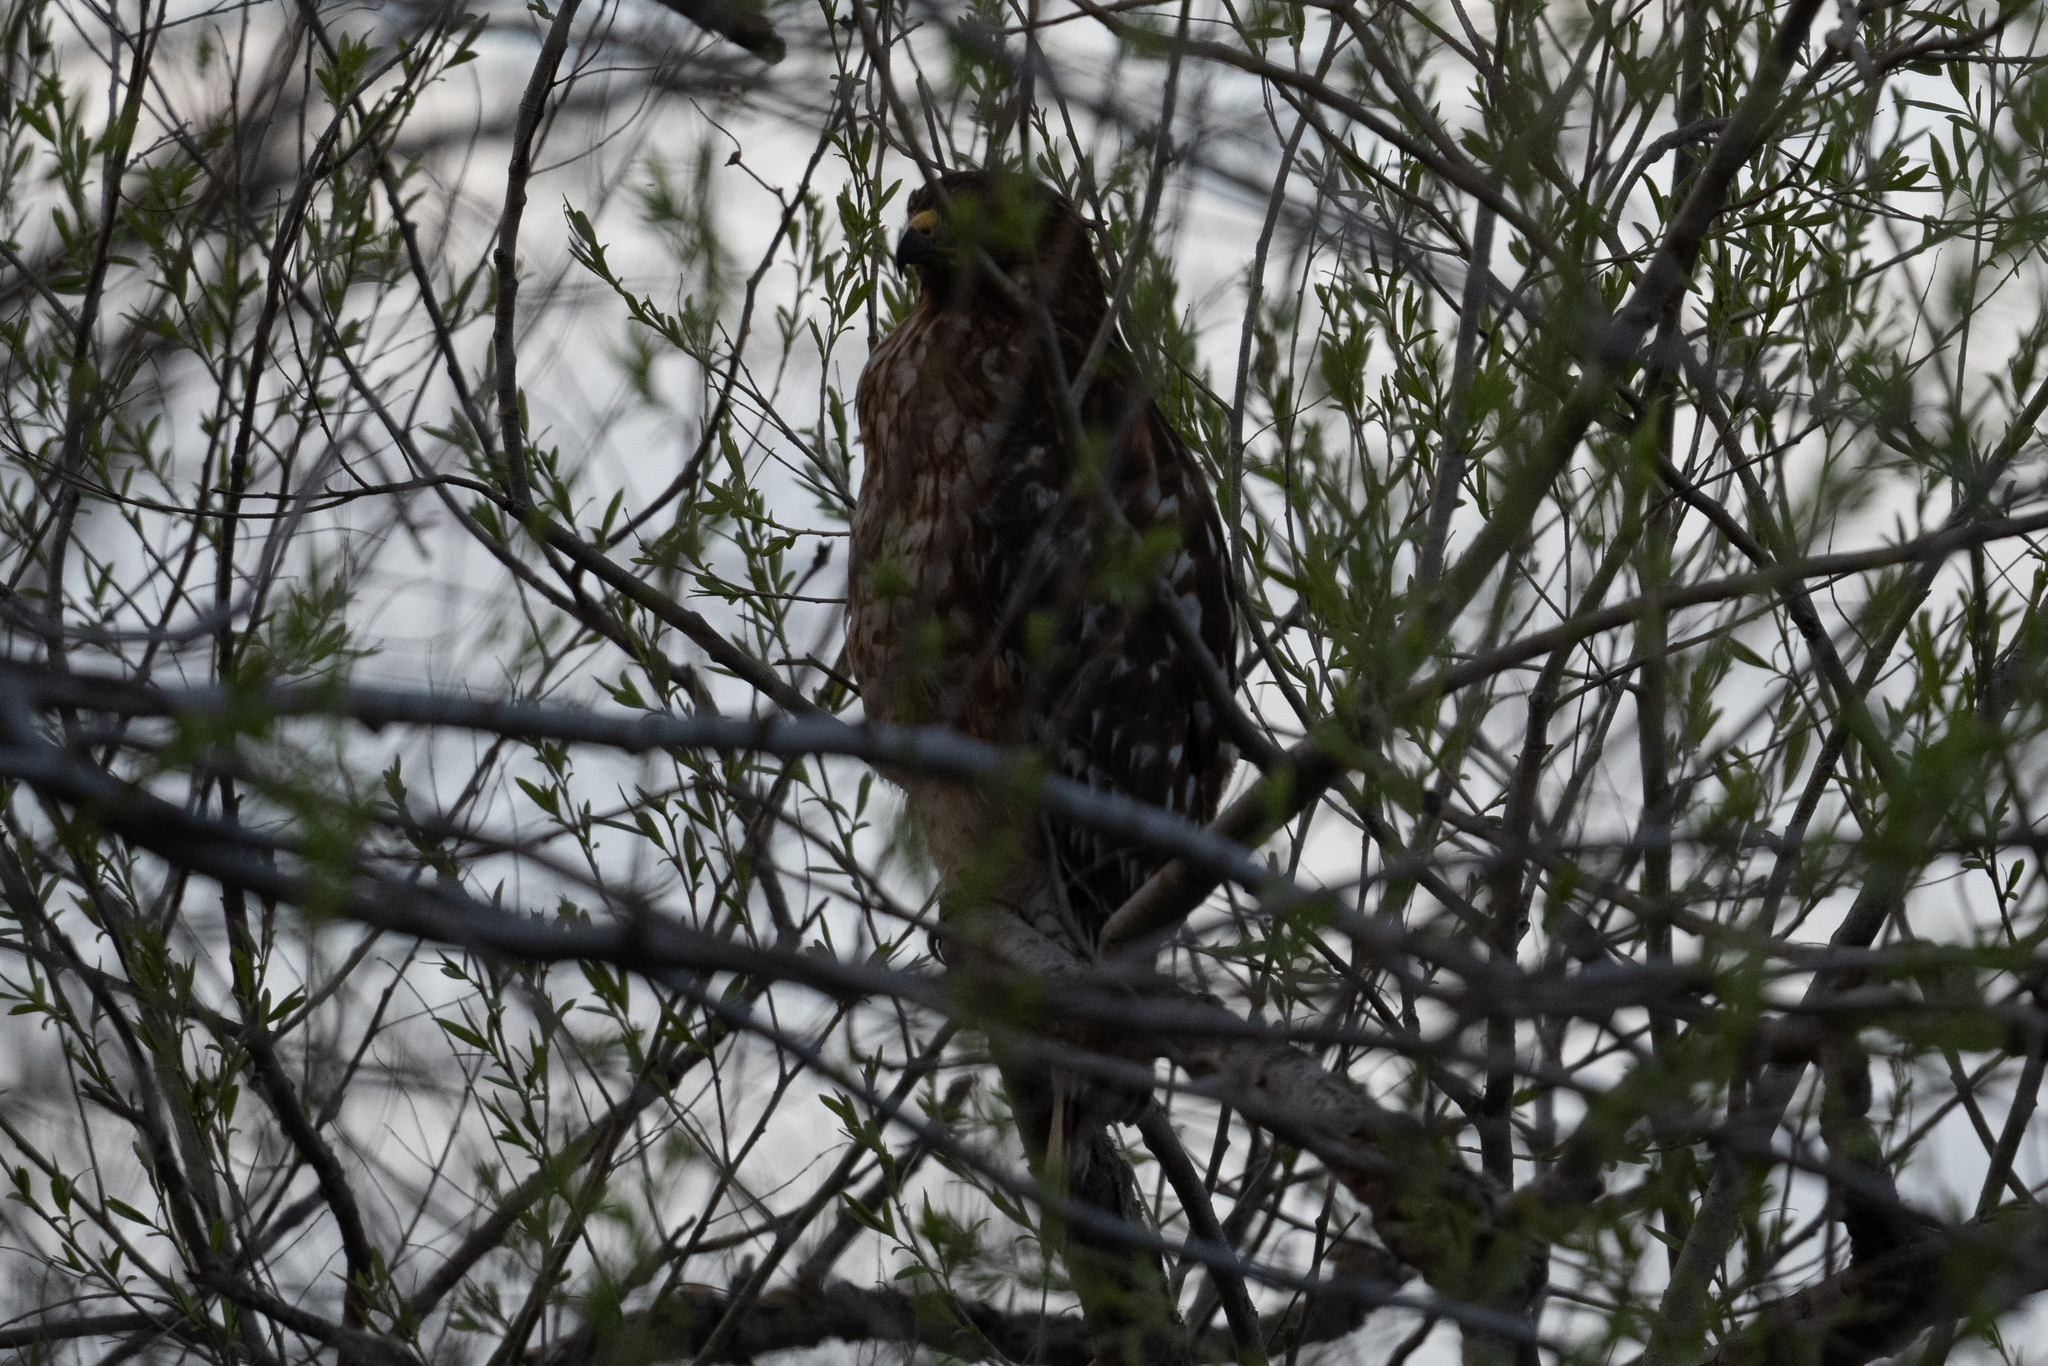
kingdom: Animalia
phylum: Chordata
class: Aves
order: Accipitriformes
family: Accipitridae
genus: Buteo
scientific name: Buteo lineatus
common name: Red-shouldered hawk
